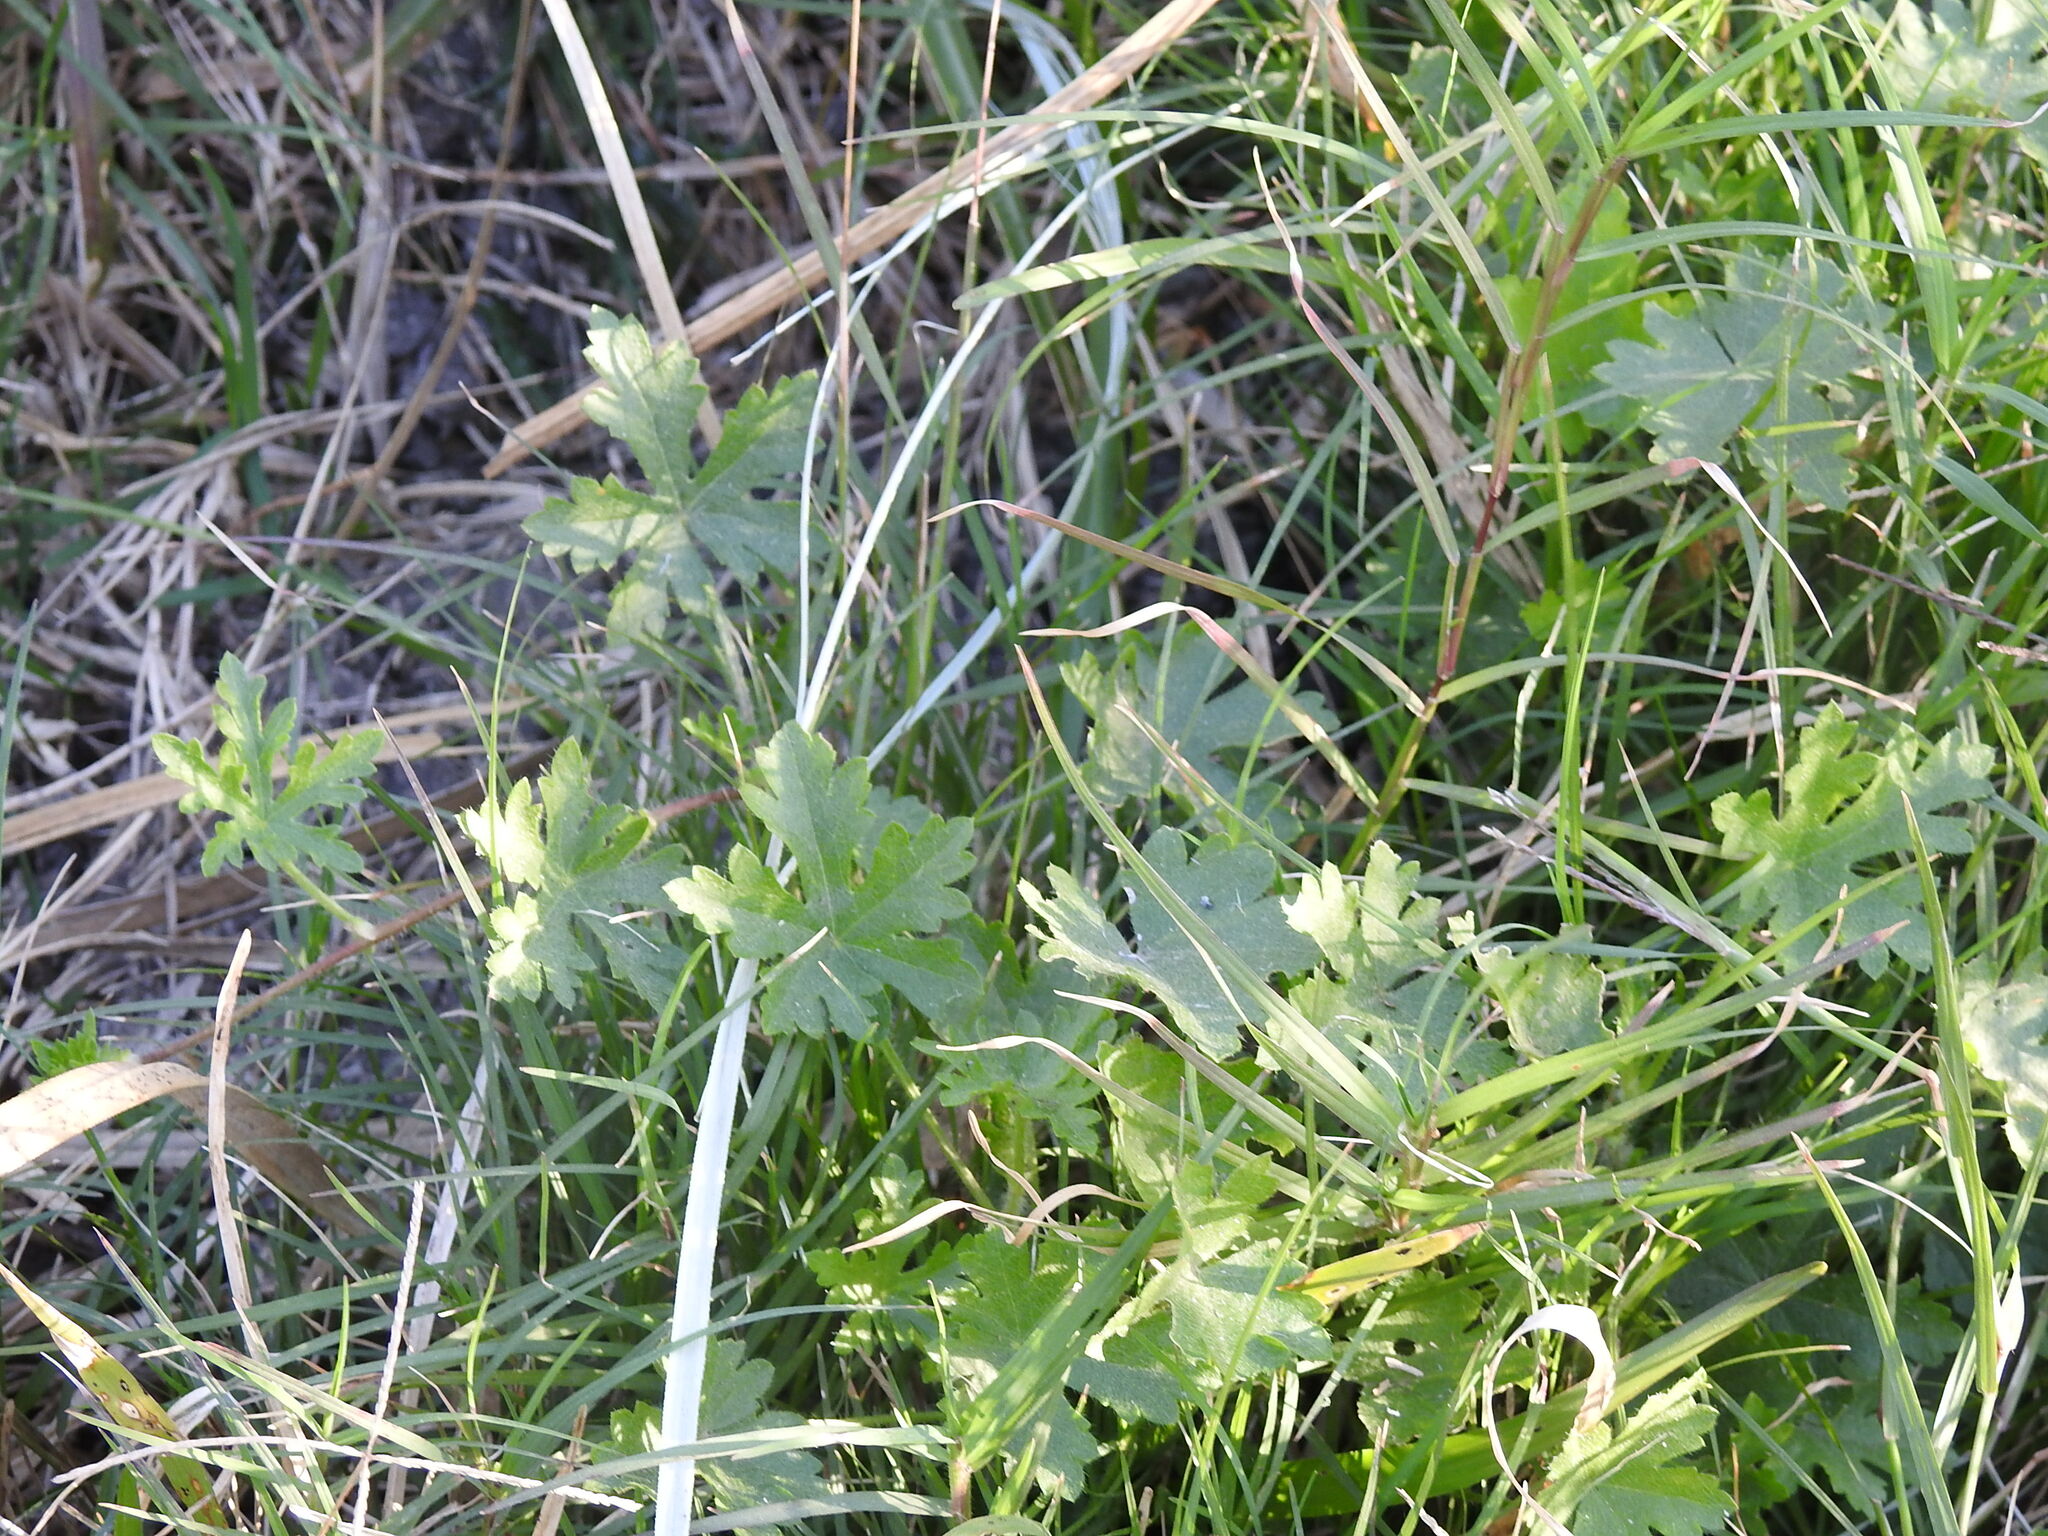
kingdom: Plantae
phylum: Tracheophyta
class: Magnoliopsida
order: Malvales
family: Malvaceae
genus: Modiolastrum
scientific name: Modiolastrum malvifolium
